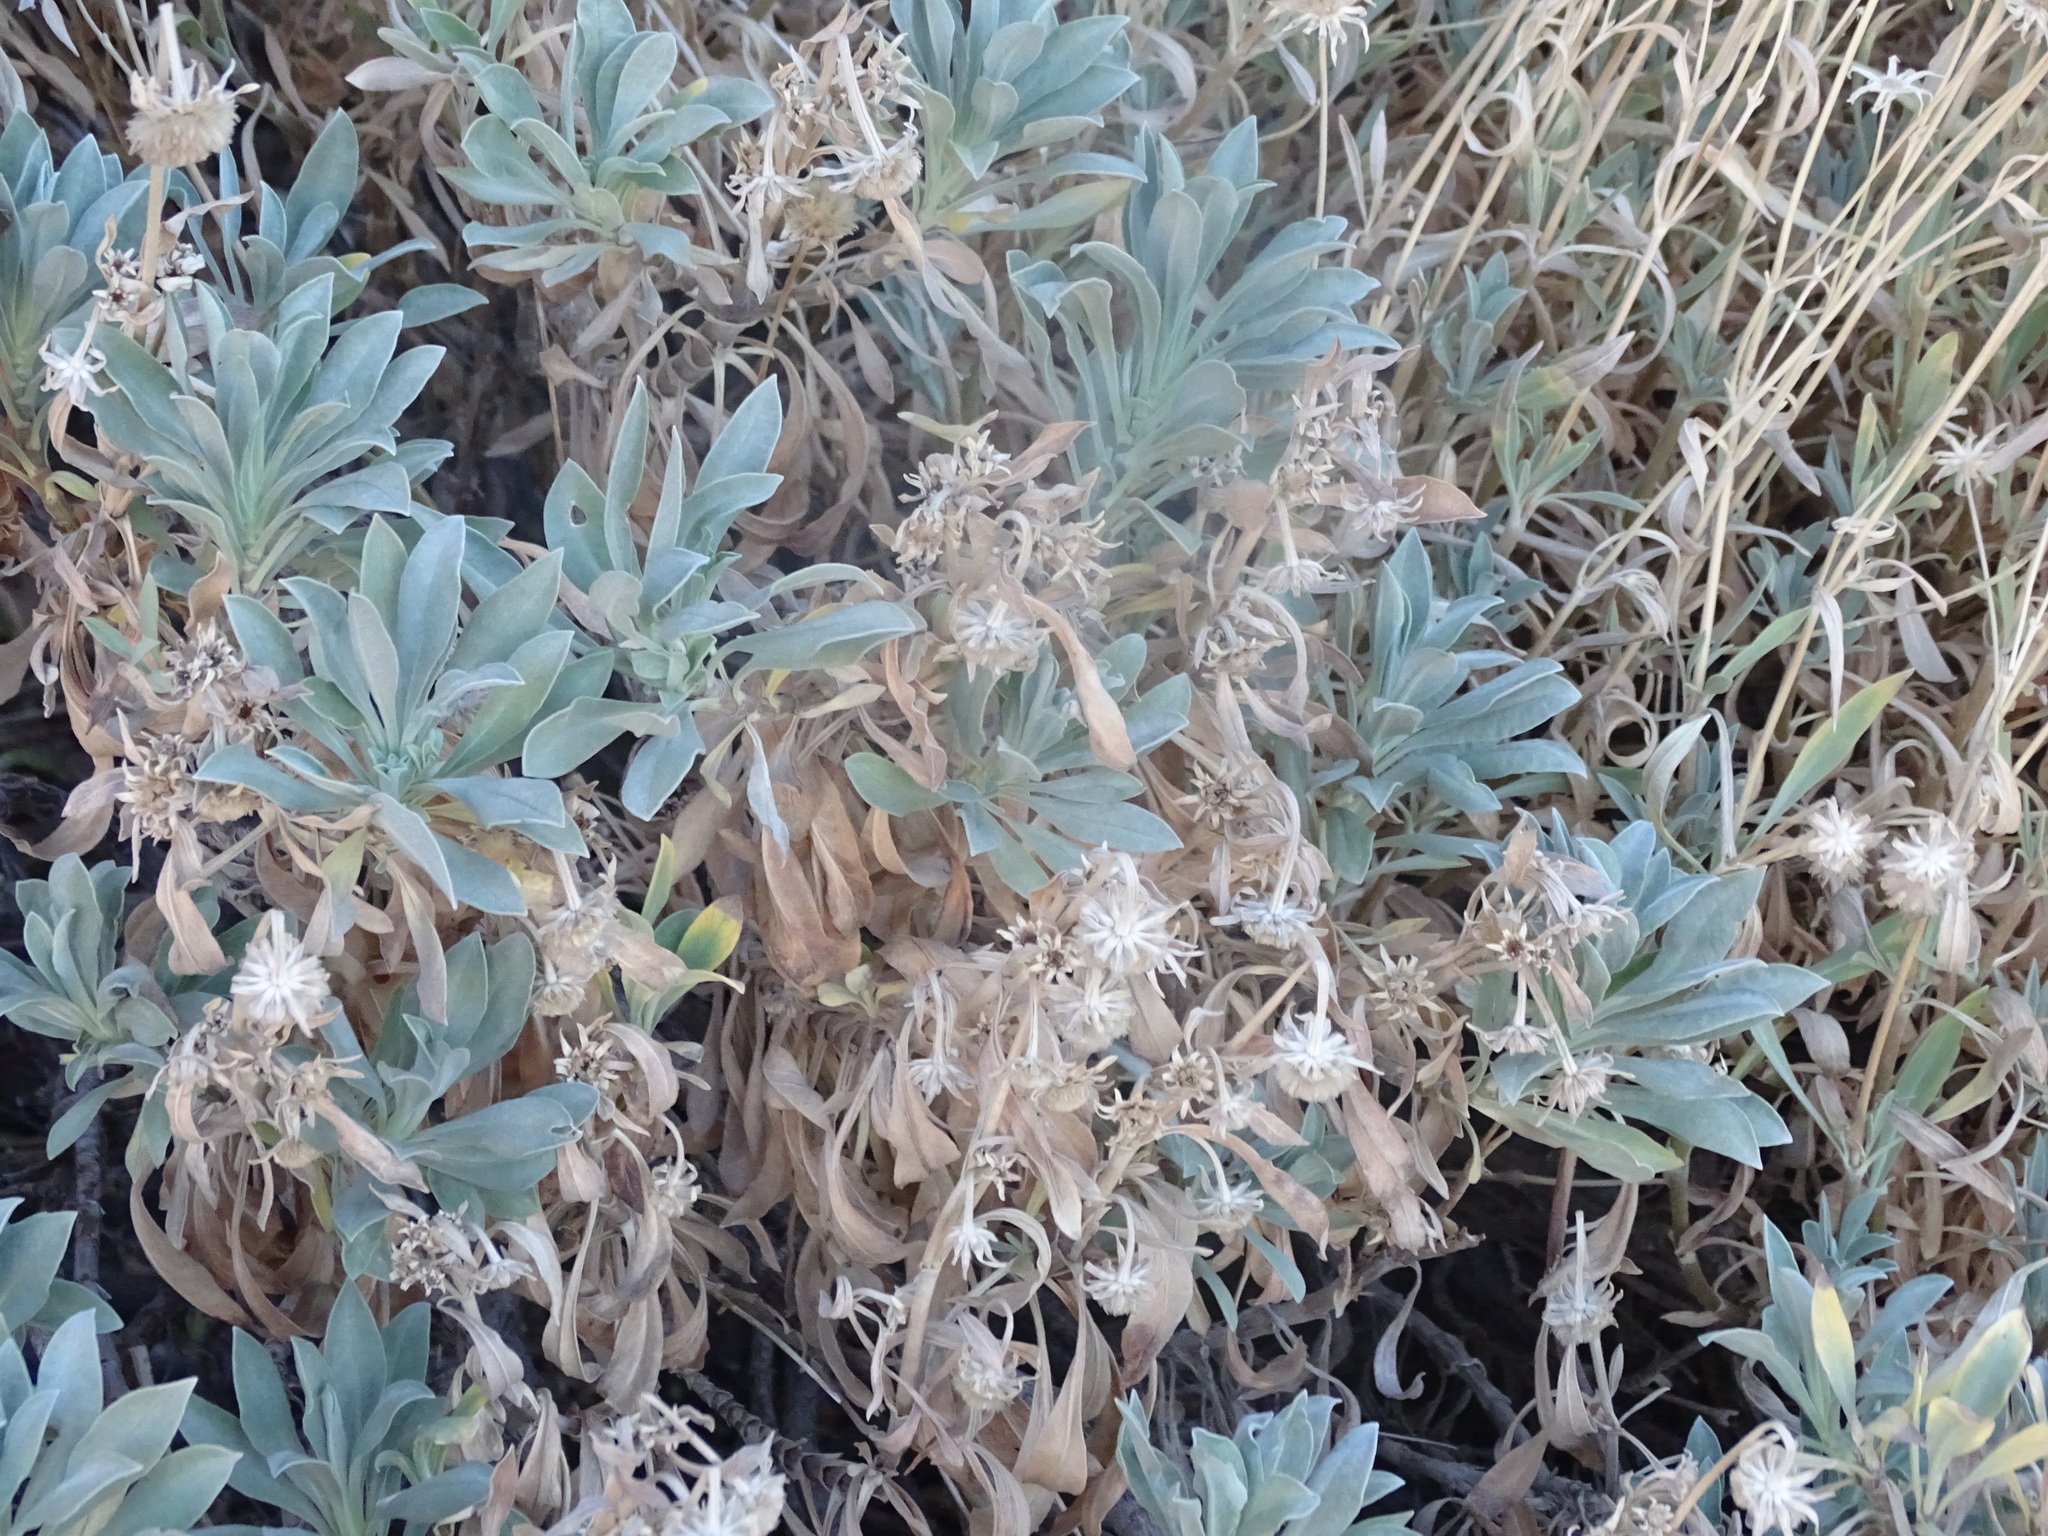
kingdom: Plantae
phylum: Tracheophyta
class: Magnoliopsida
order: Dipsacales
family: Caprifoliaceae
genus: Pterocephalus
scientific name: Pterocephalus lasiospermus
